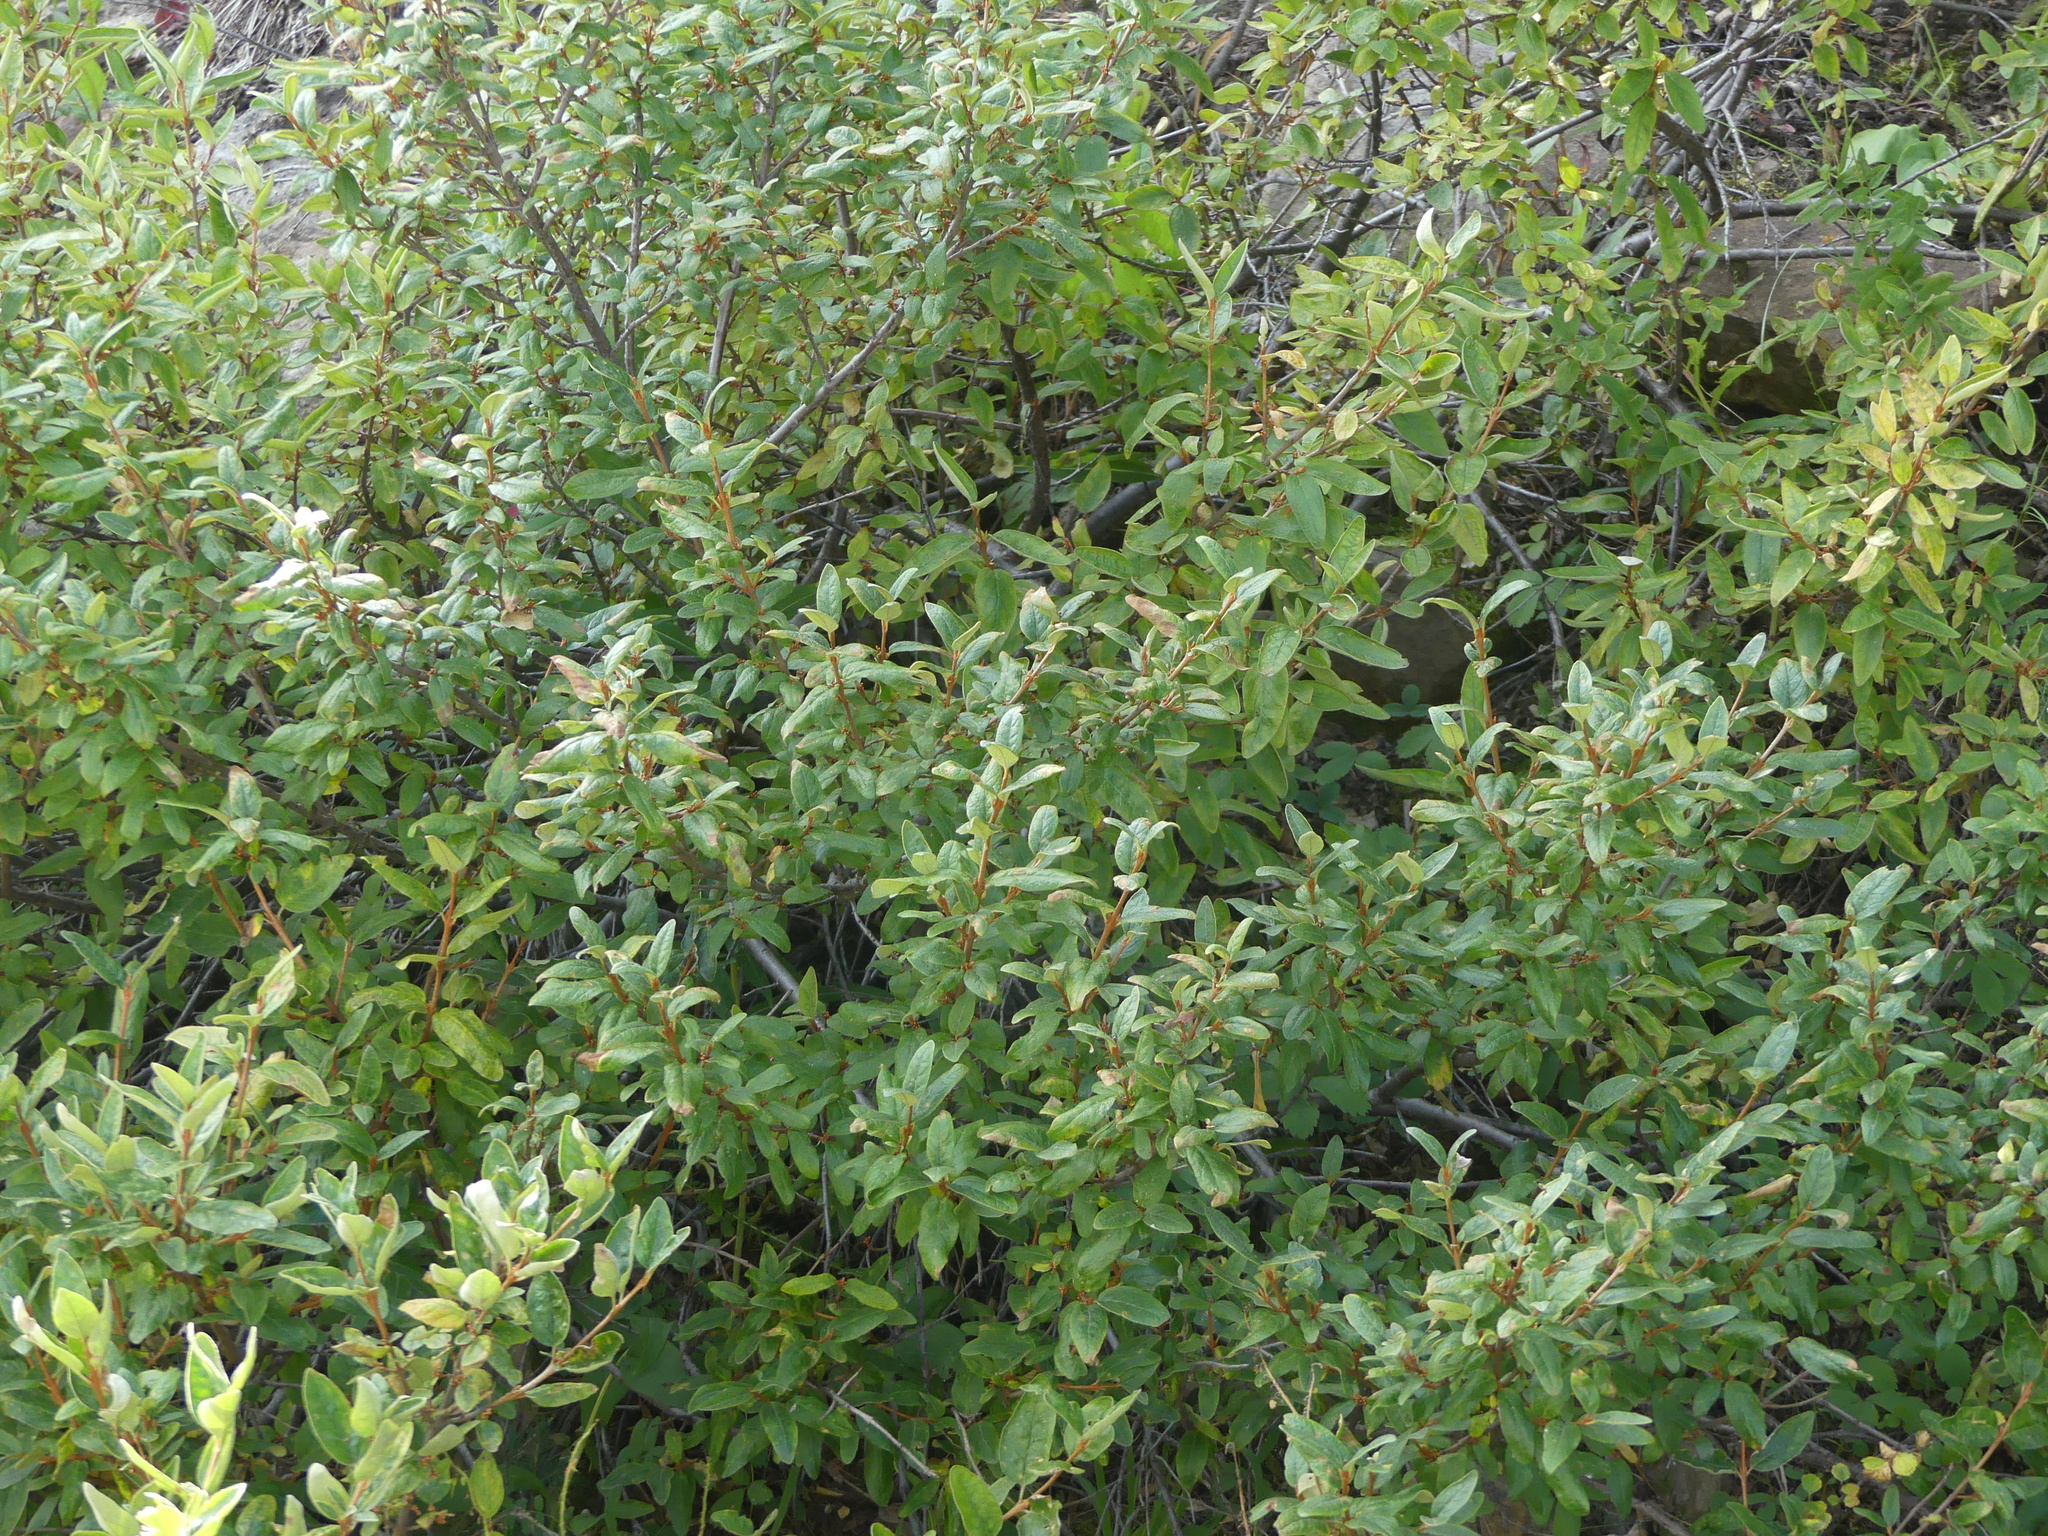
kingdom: Plantae
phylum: Tracheophyta
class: Magnoliopsida
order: Rosales
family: Elaeagnaceae
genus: Shepherdia
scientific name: Shepherdia canadensis
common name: Soapberry
